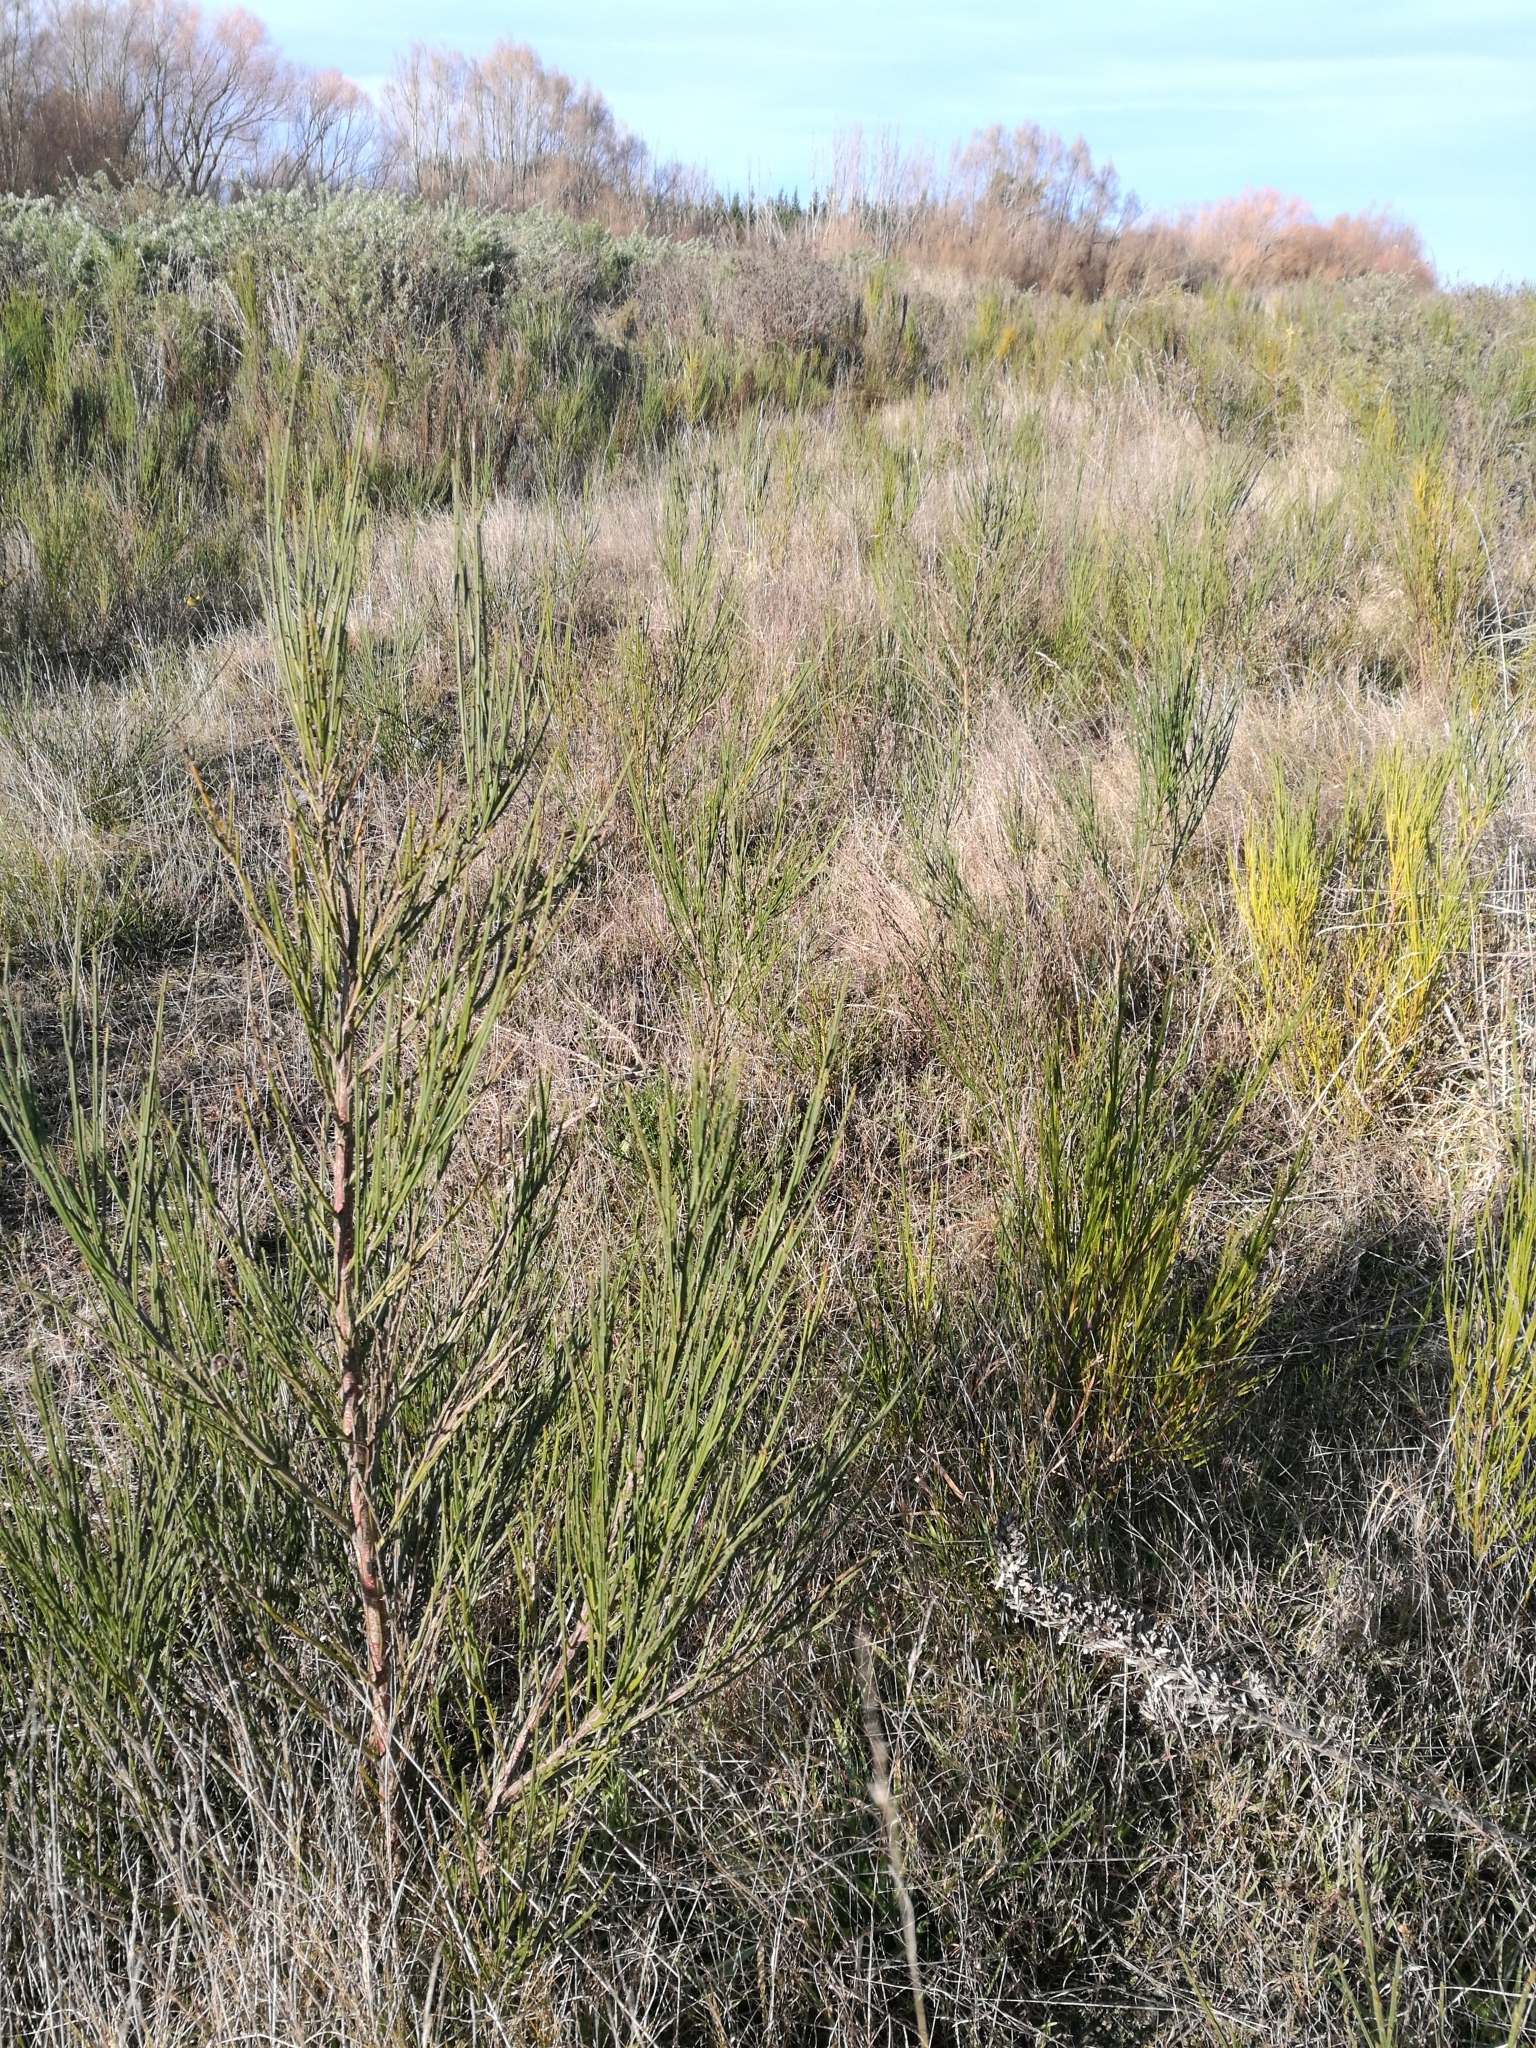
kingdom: Plantae
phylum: Tracheophyta
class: Magnoliopsida
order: Fabales
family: Fabaceae
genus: Cytisus
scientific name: Cytisus scoparius
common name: Scotch broom
